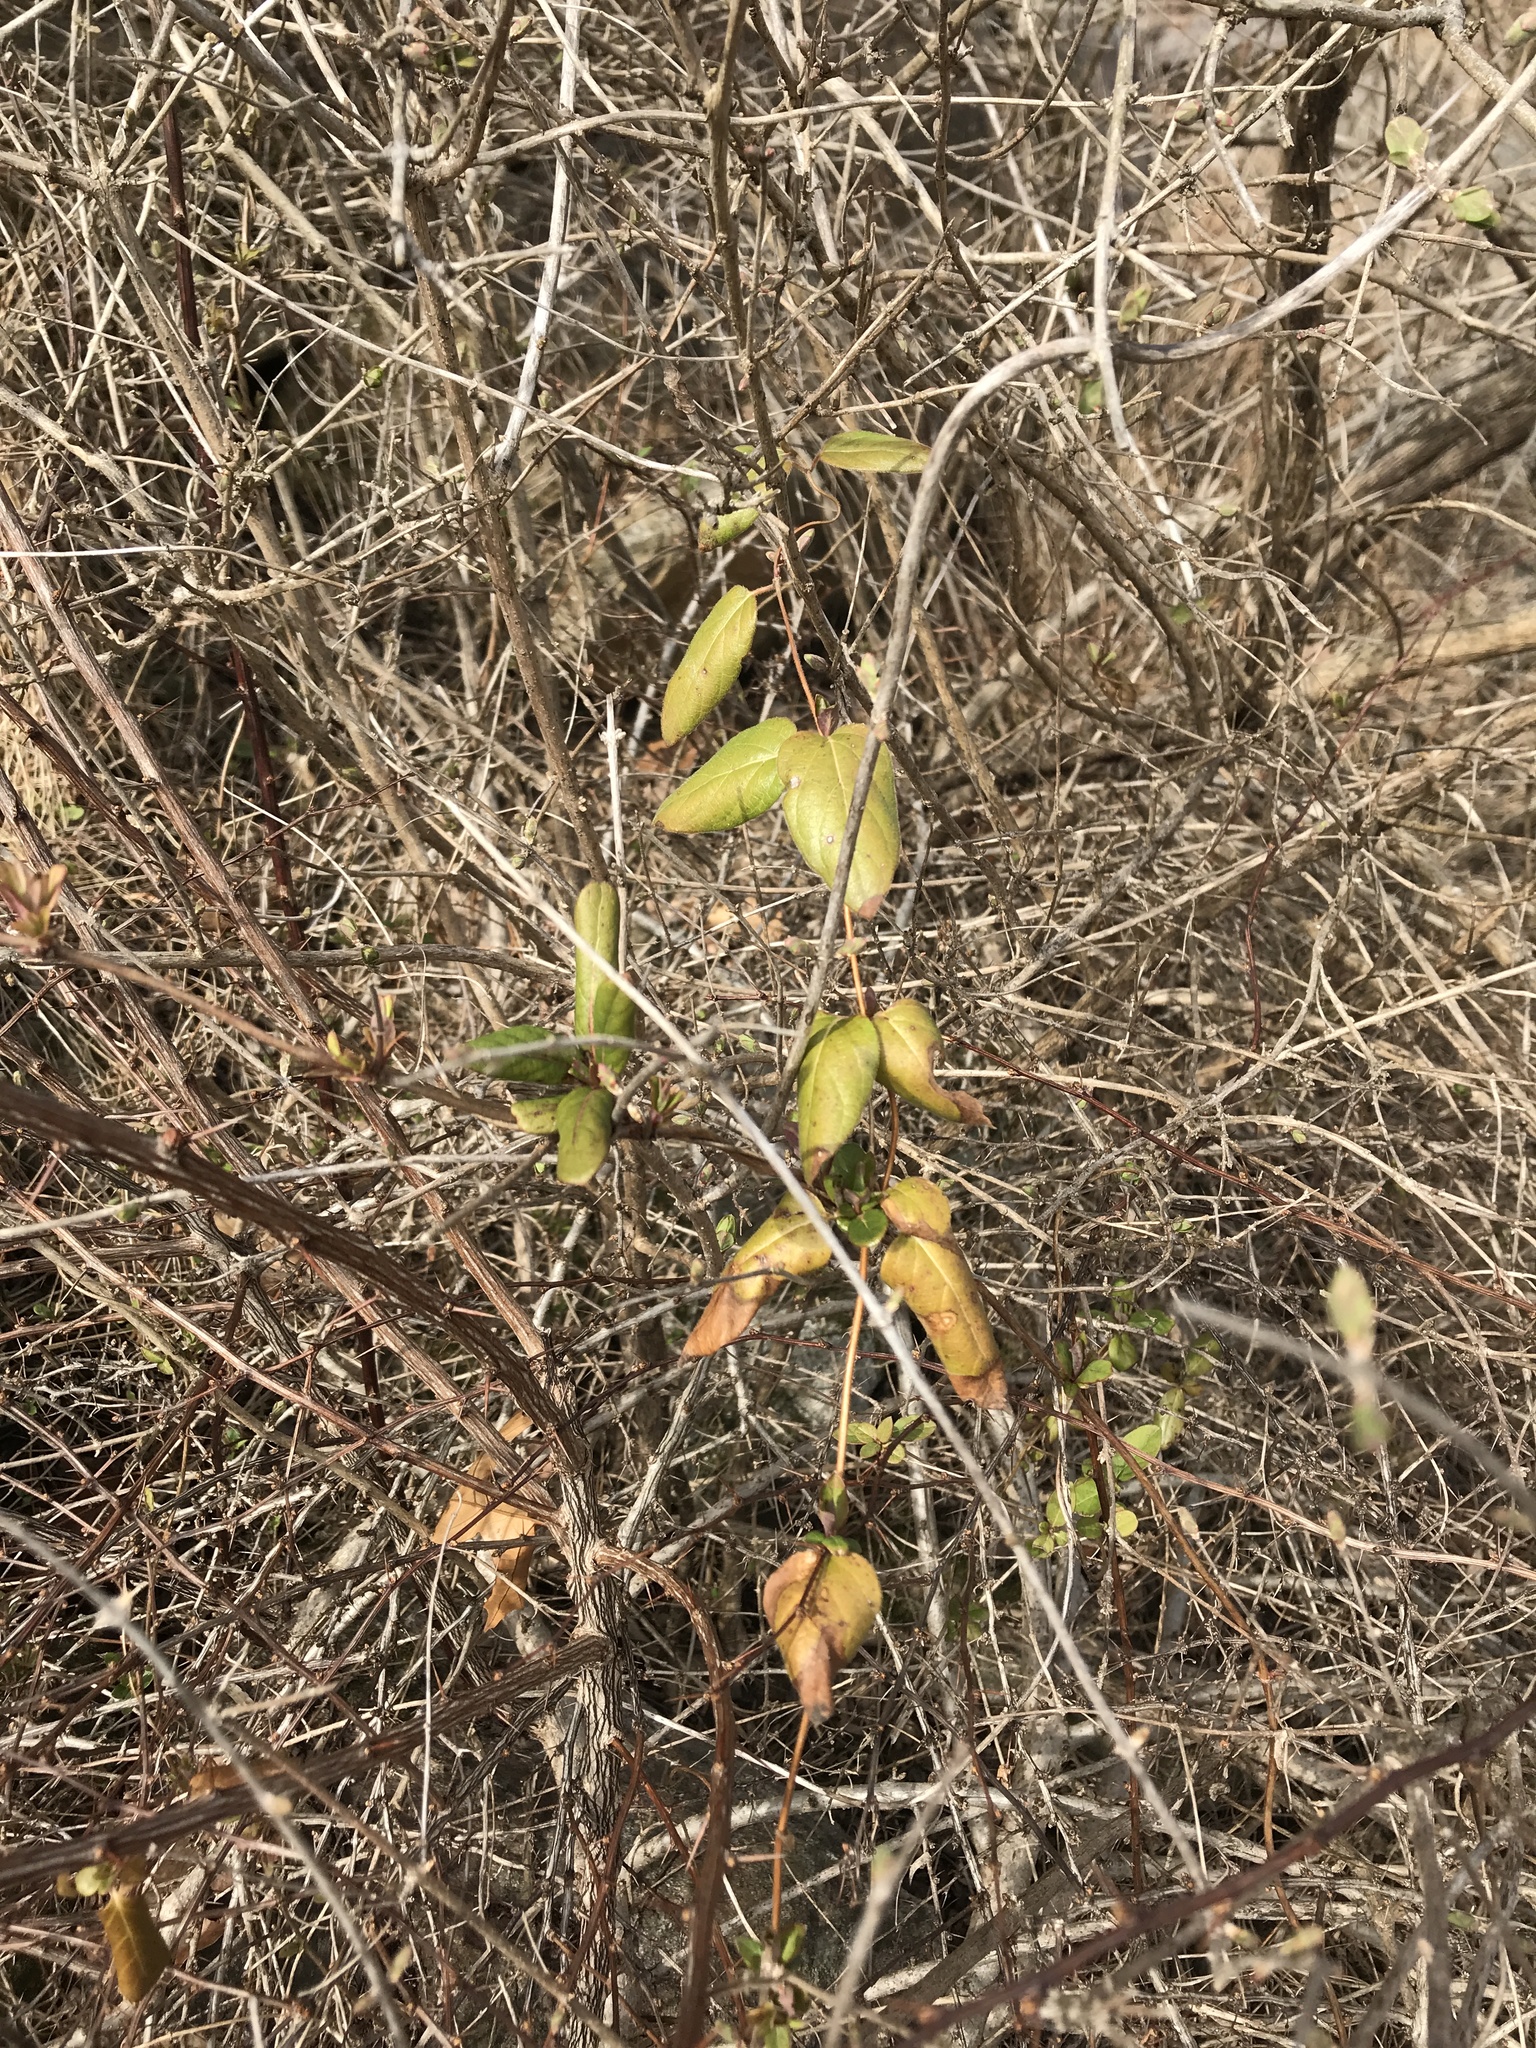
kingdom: Plantae
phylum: Tracheophyta
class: Magnoliopsida
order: Dipsacales
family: Caprifoliaceae
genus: Lonicera
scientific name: Lonicera japonica
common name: Japanese honeysuckle
